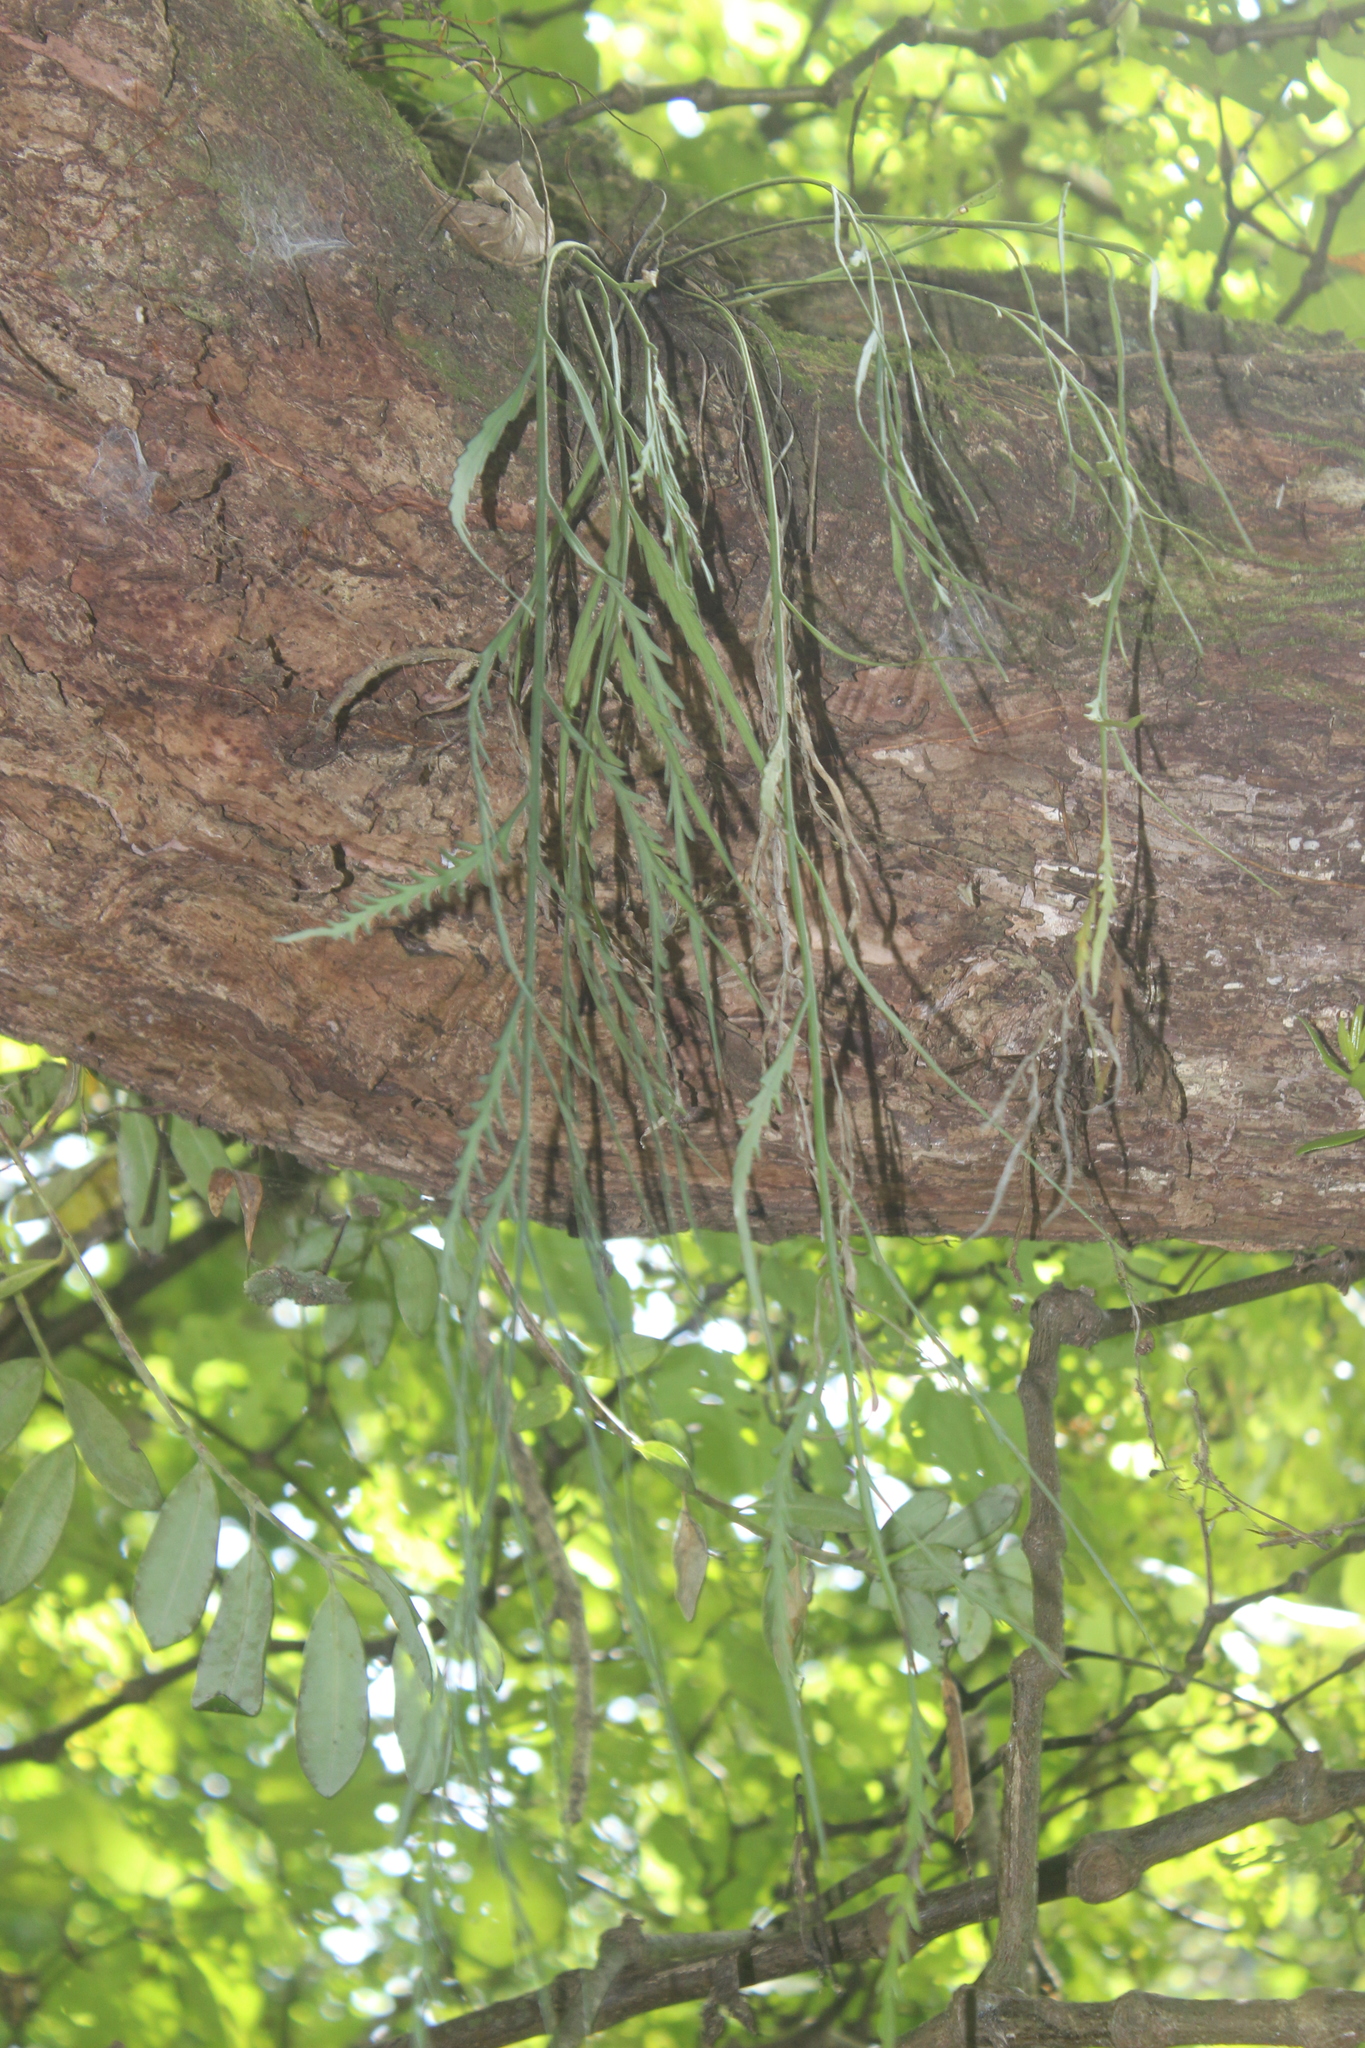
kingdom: Plantae
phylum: Tracheophyta
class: Polypodiopsida
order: Polypodiales
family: Aspleniaceae
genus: Asplenium
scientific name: Asplenium flaccidum
